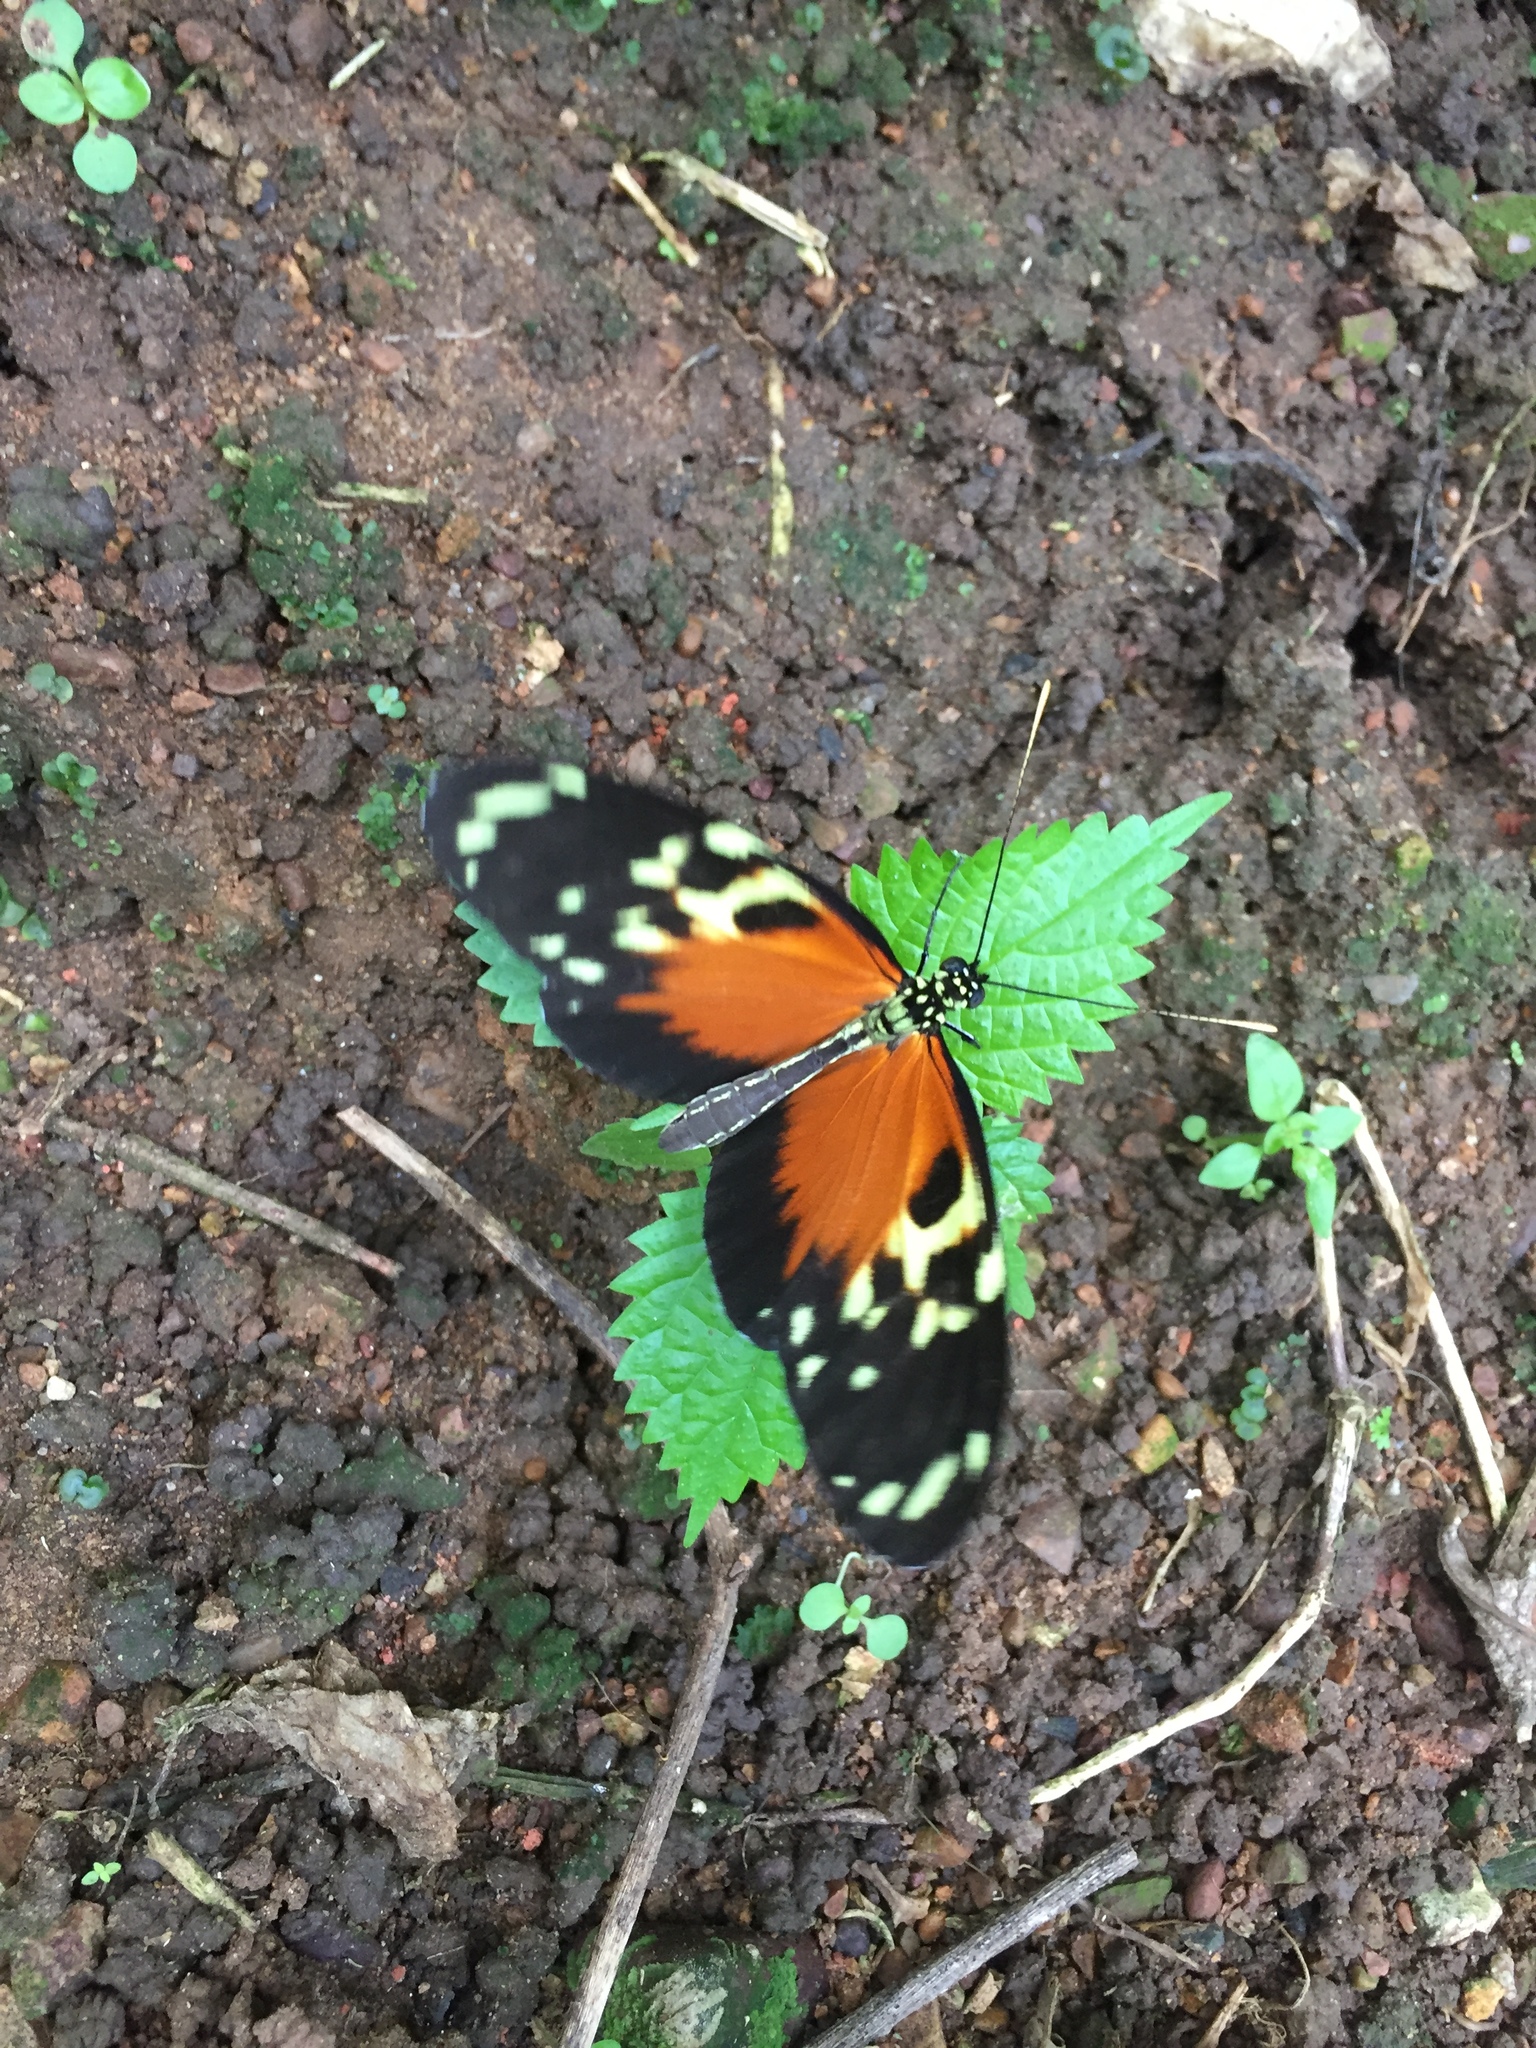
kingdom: Animalia
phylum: Arthropoda
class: Insecta
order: Lepidoptera
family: Nymphalidae
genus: Heliconius
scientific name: Heliconius hecale
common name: Tiger longwing
